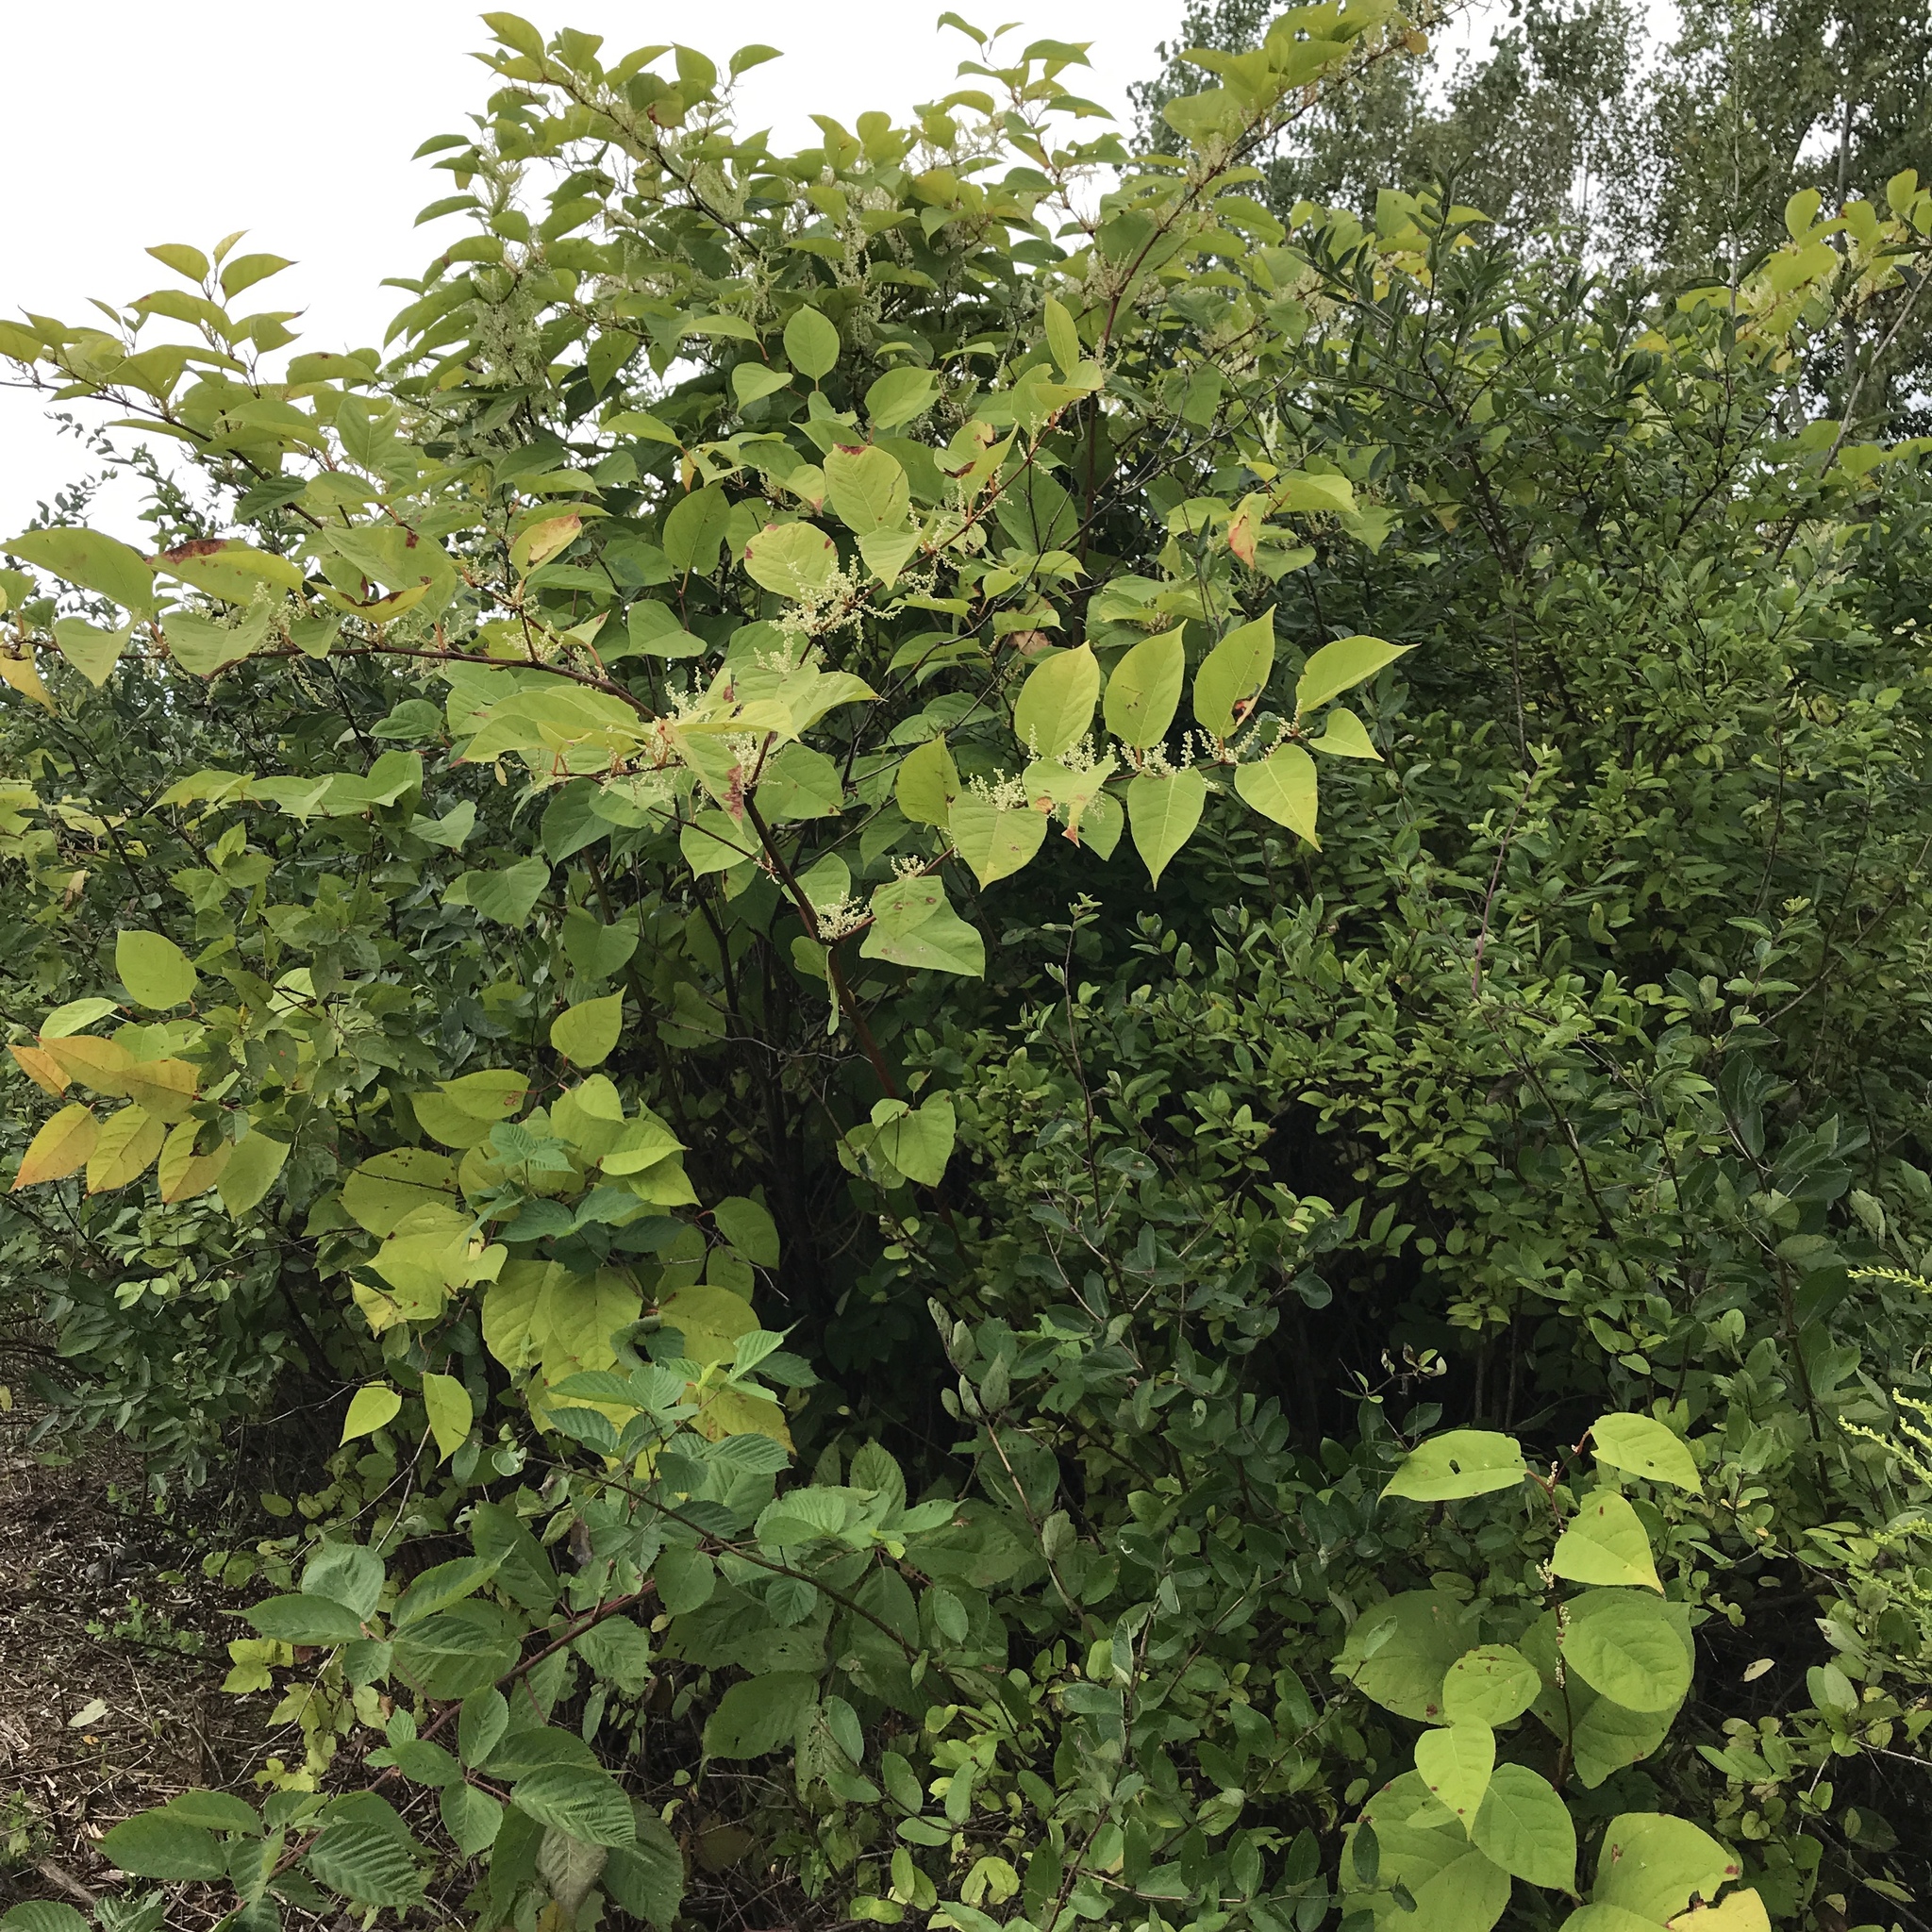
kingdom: Plantae
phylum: Tracheophyta
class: Magnoliopsida
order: Caryophyllales
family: Polygonaceae
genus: Reynoutria
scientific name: Reynoutria japonica
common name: Japanese knotweed
